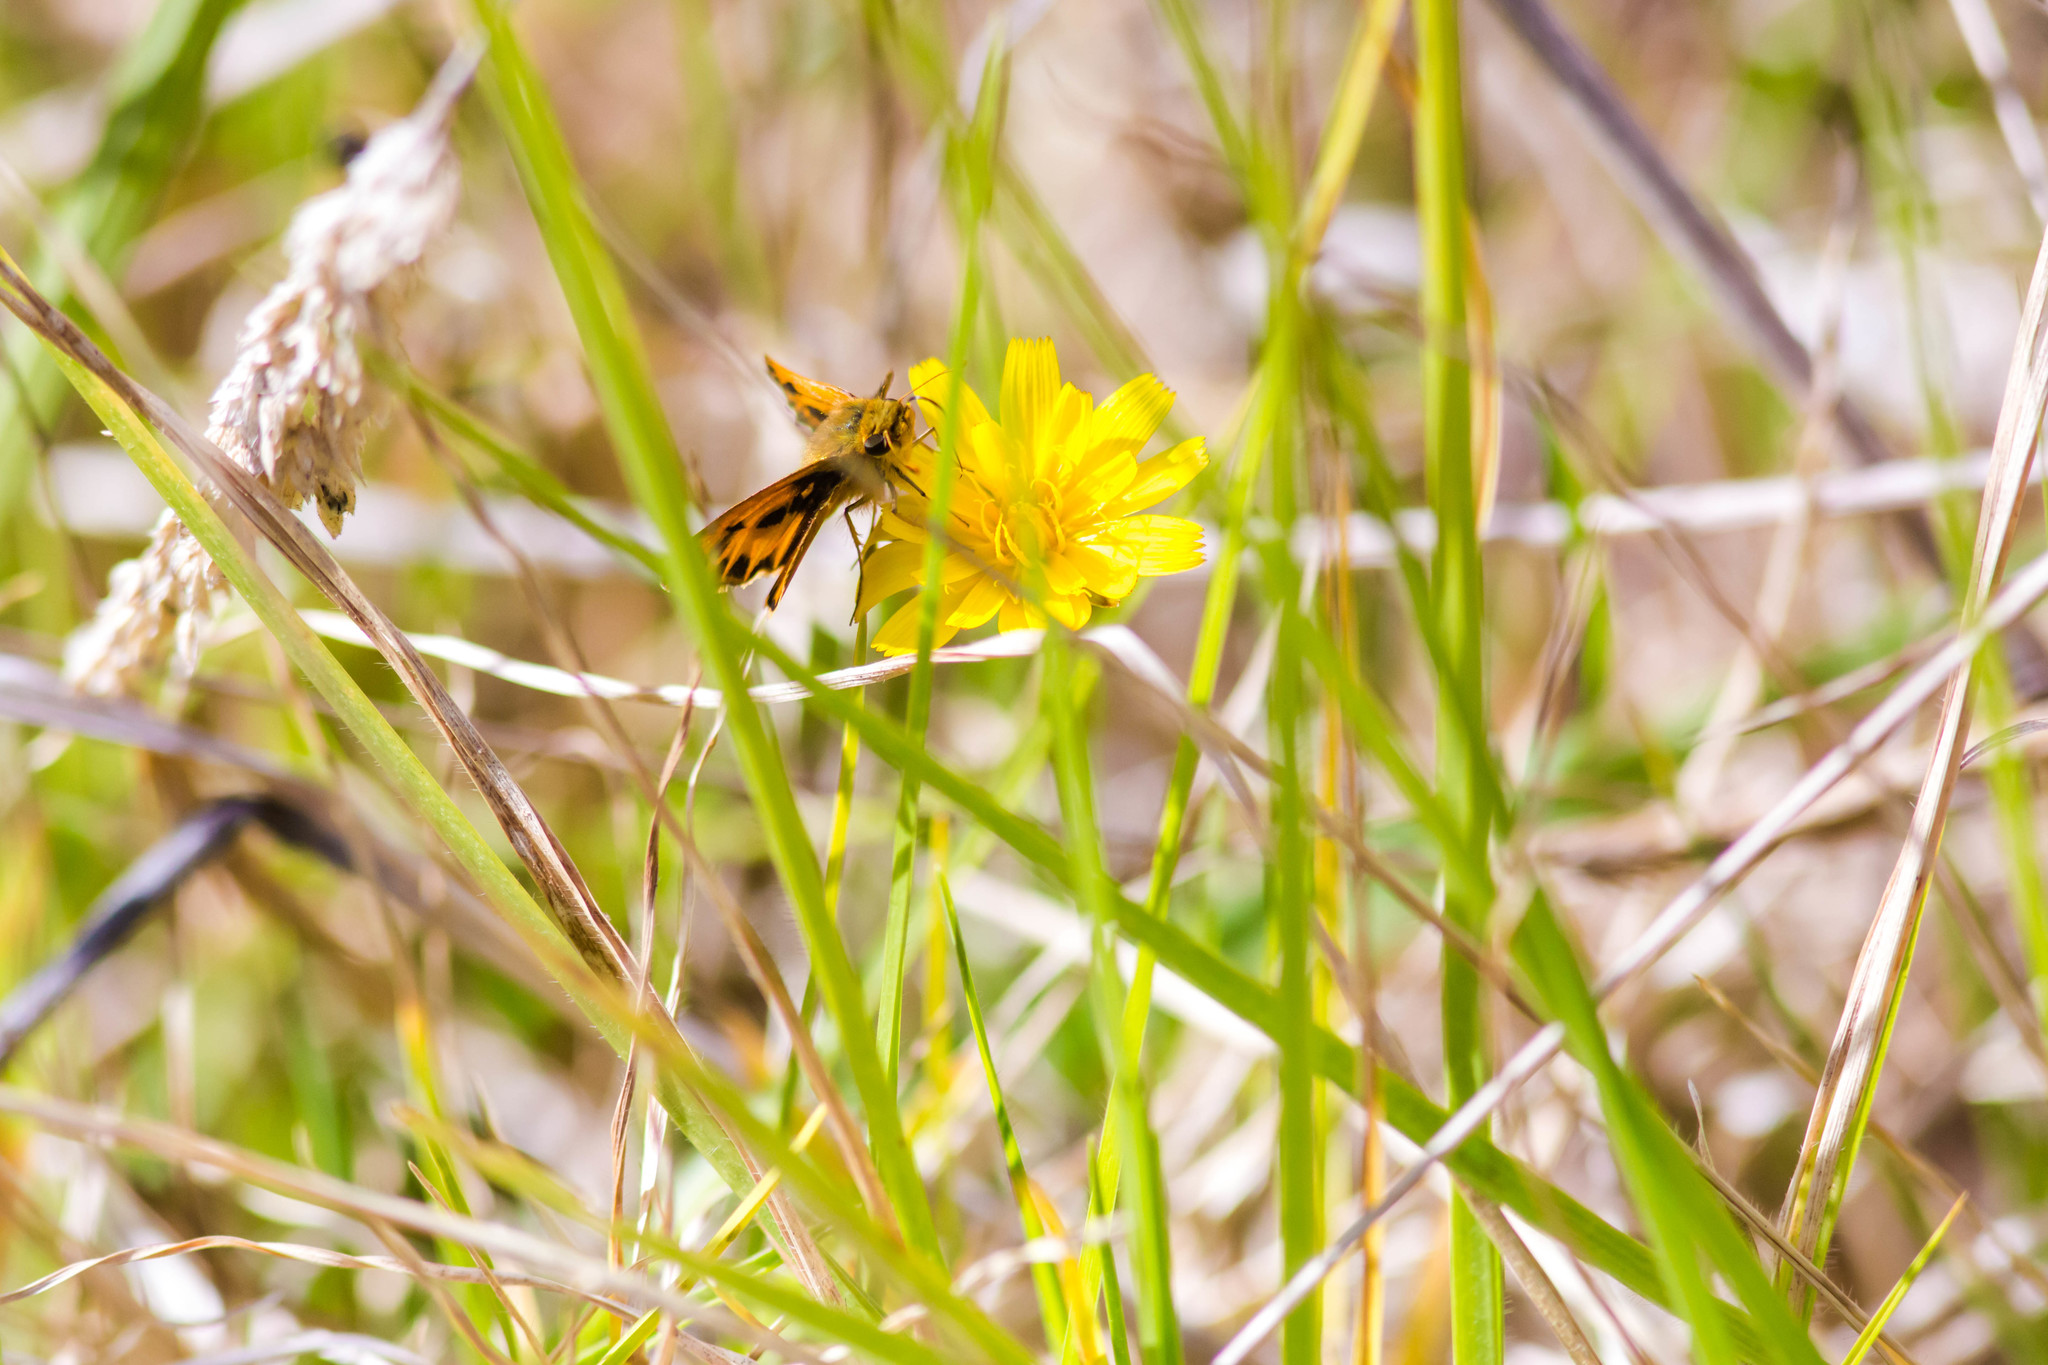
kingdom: Animalia
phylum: Arthropoda
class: Insecta
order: Lepidoptera
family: Hesperiidae
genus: Hylephila
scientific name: Hylephila phyleus
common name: Fiery skipper
